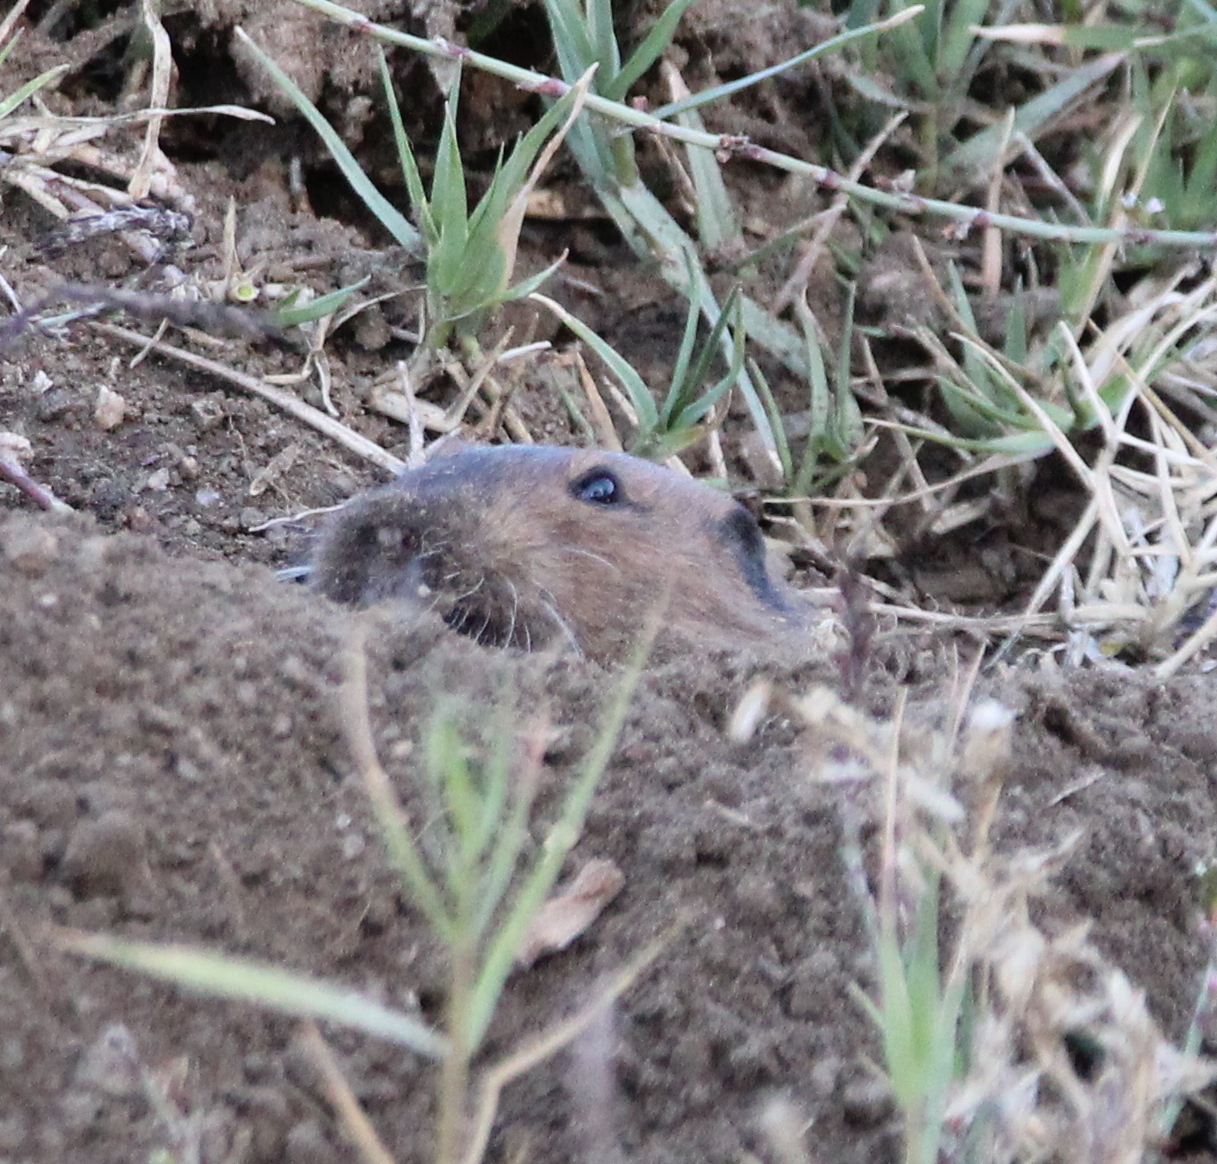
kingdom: Animalia
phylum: Chordata
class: Mammalia
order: Rodentia
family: Geomyidae
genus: Thomomys
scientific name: Thomomys bottae
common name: Botta's pocket gopher
